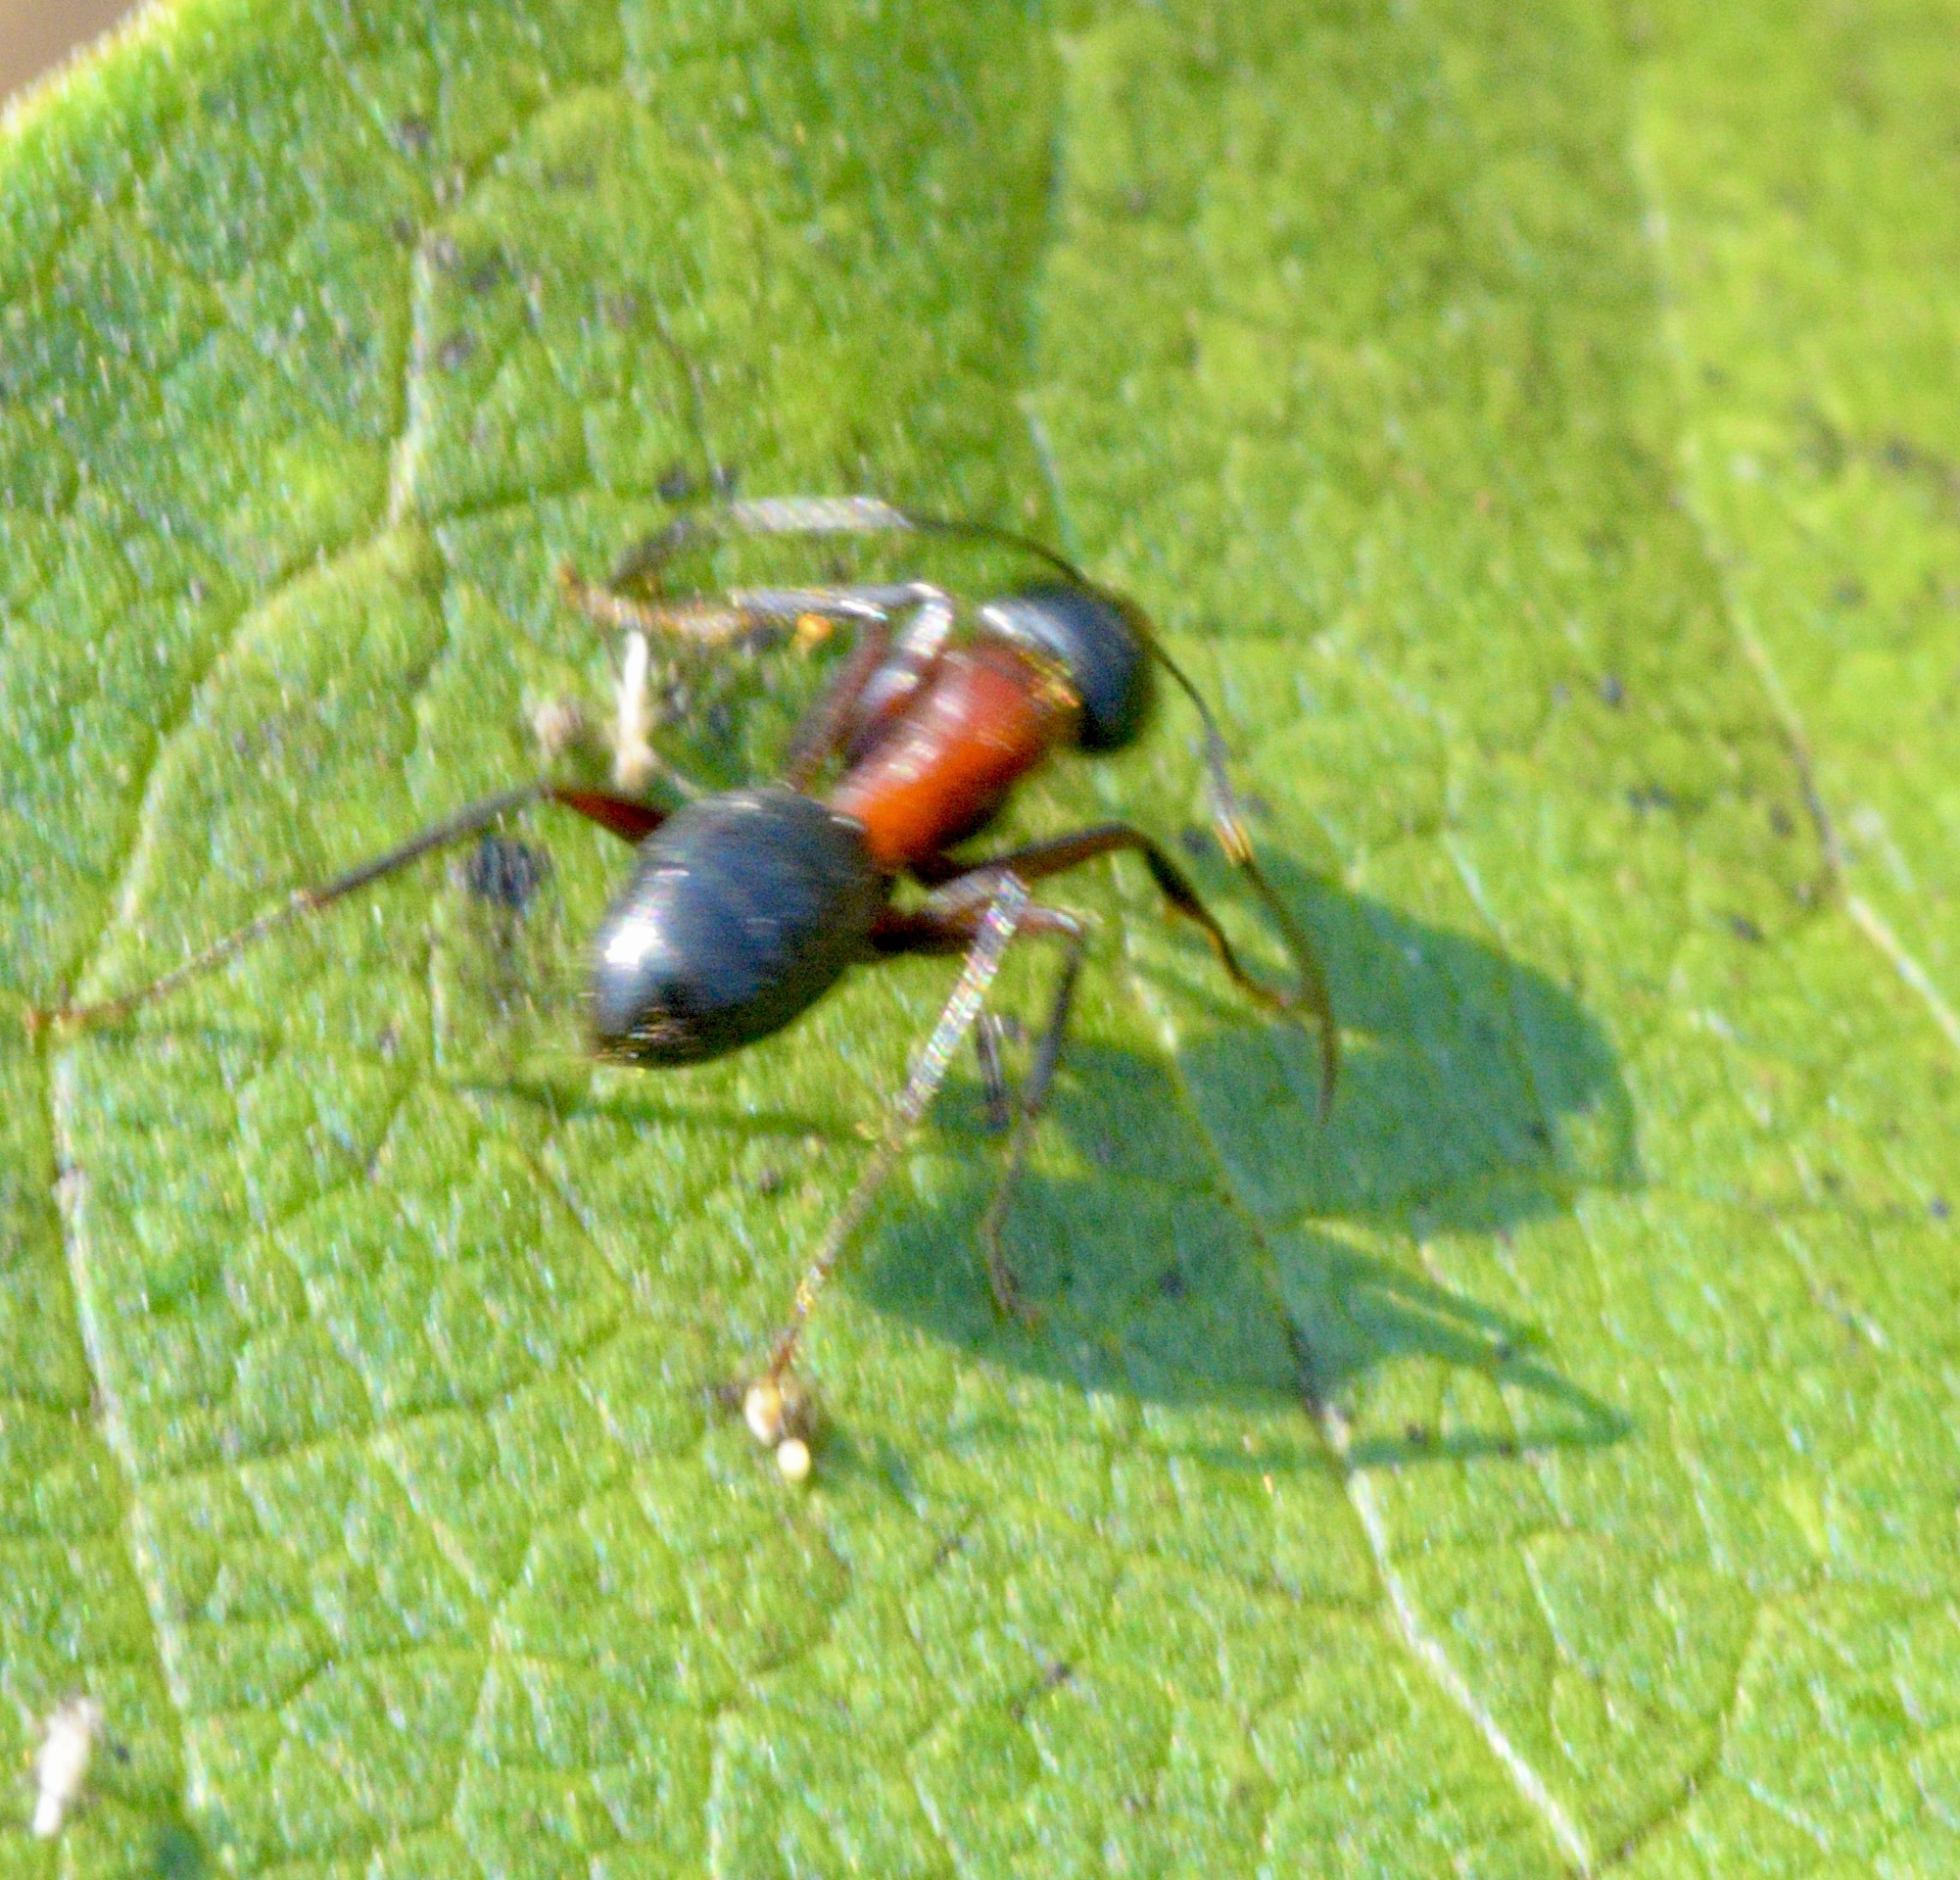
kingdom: Animalia
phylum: Arthropoda
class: Insecta
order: Hymenoptera
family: Formicidae
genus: Camponotus
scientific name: Camponotus novaeboracensis
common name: New york carpenter ant
